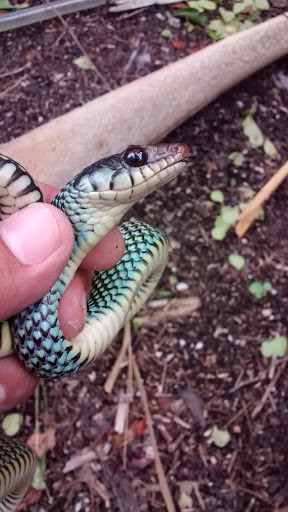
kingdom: Animalia
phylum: Chordata
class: Squamata
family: Colubridae
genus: Drymobius
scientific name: Drymobius margaritiferus
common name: Central american speckled racer
